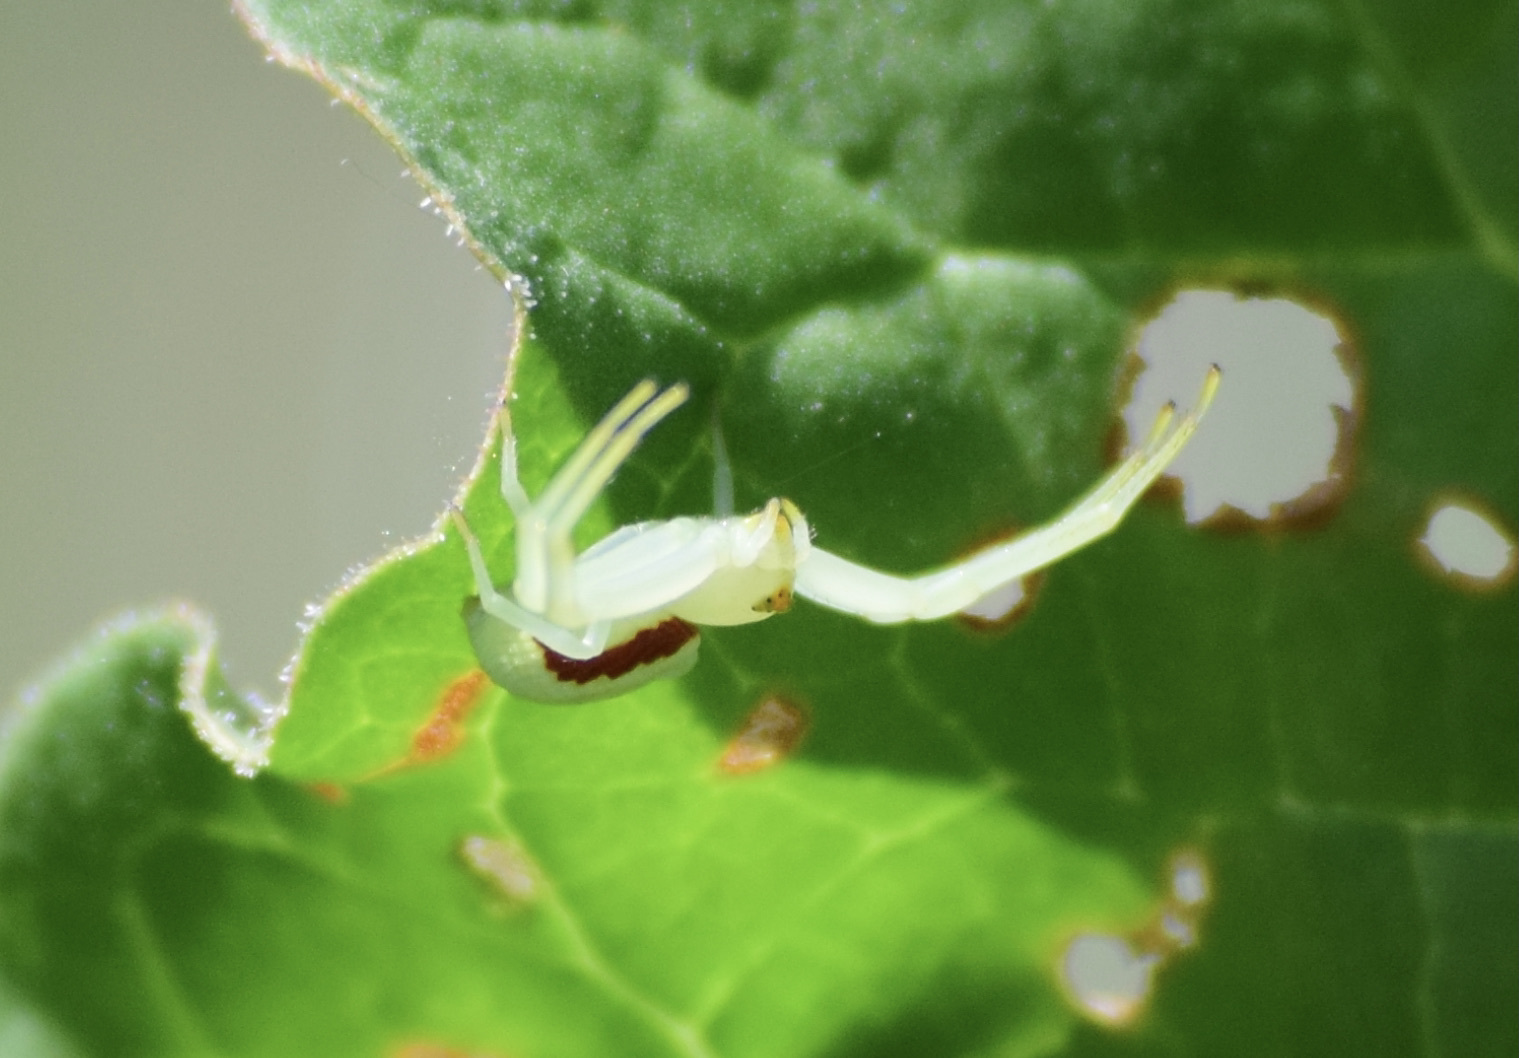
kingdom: Animalia
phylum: Arthropoda
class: Arachnida
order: Araneae
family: Thomisidae
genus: Misumena
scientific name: Misumena vatia
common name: Goldenrod crab spider
